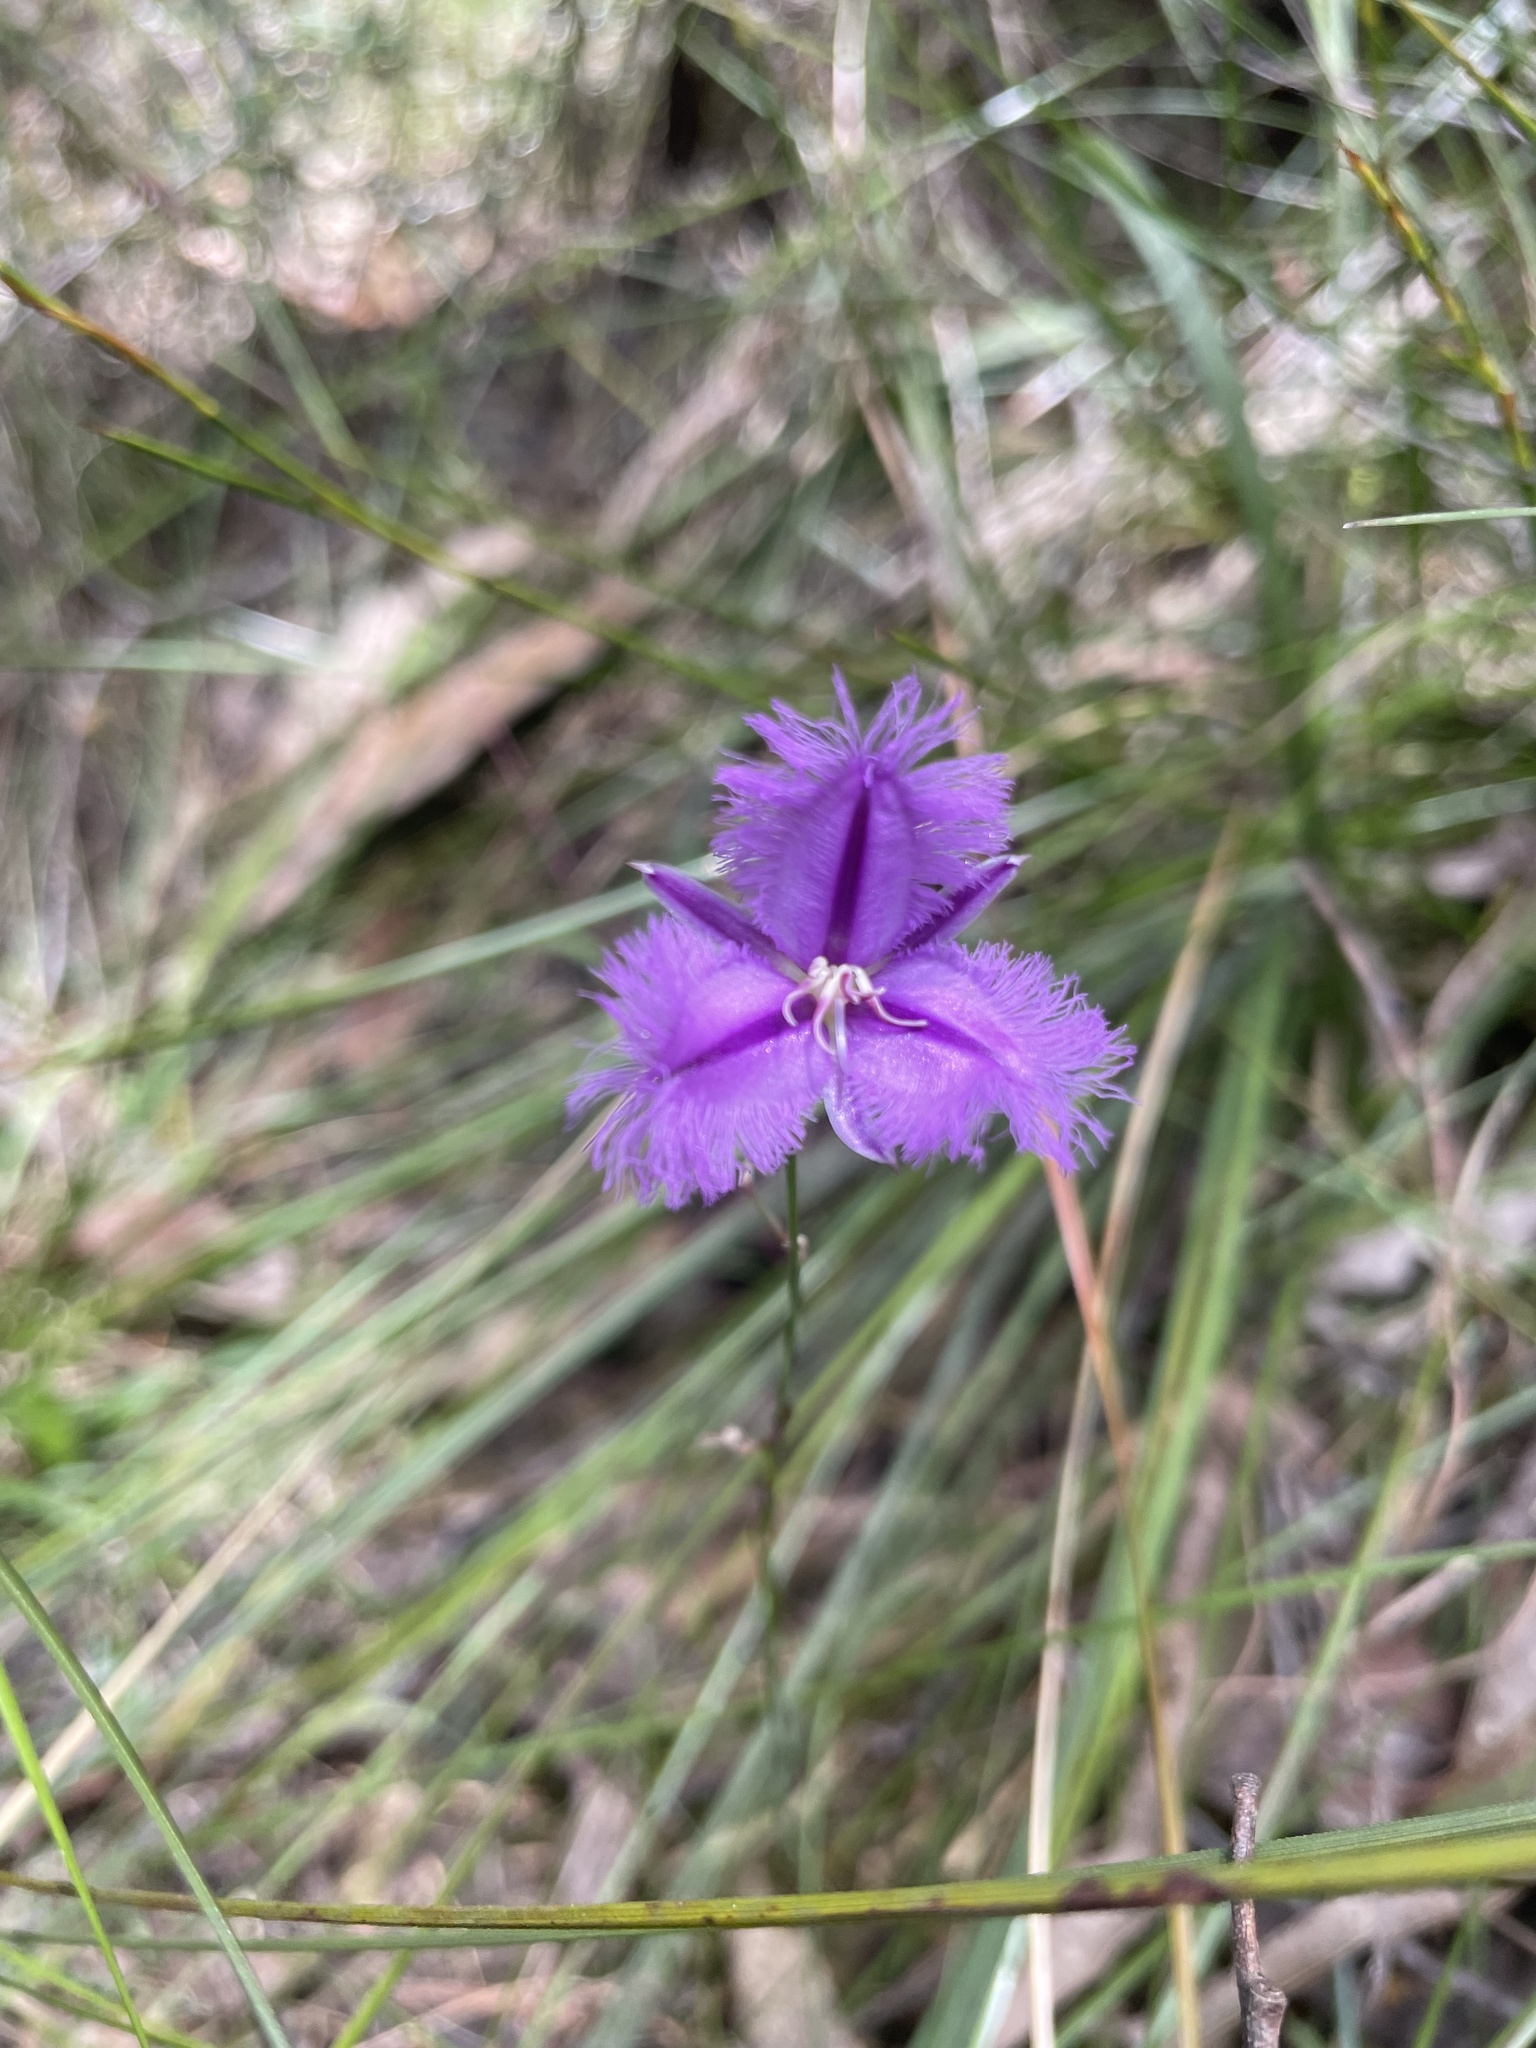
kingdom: Plantae
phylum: Tracheophyta
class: Liliopsida
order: Asparagales
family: Asparagaceae
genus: Thysanotus
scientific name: Thysanotus tuberosus
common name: Common fringed-lily
